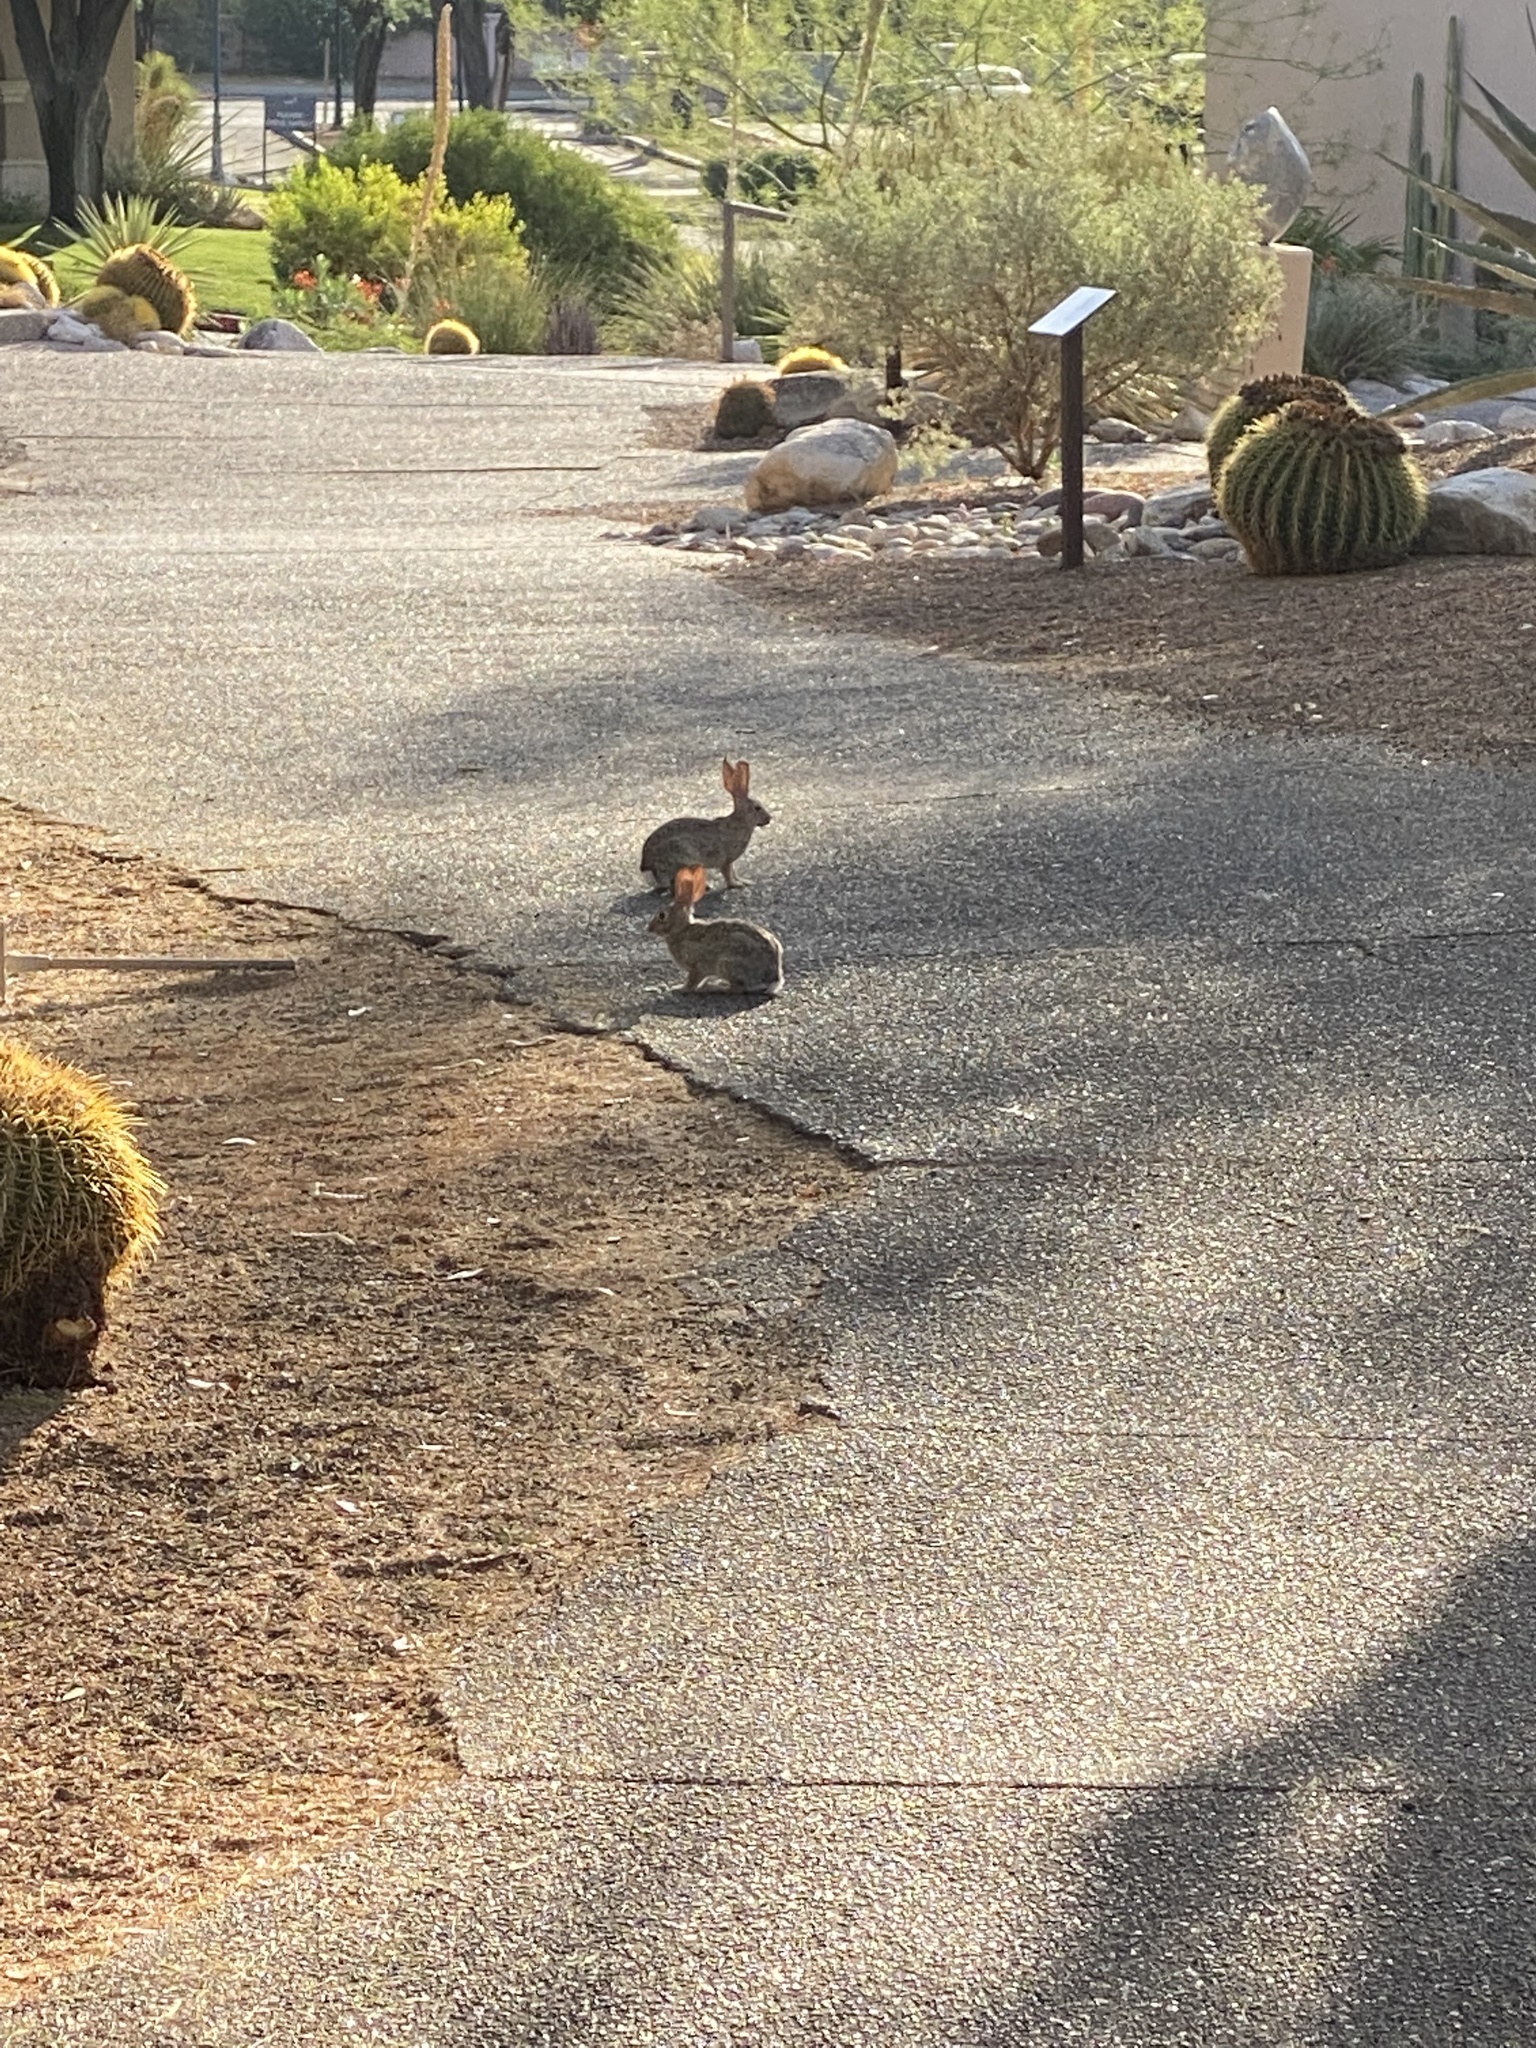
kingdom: Animalia
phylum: Chordata
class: Mammalia
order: Lagomorpha
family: Leporidae
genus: Sylvilagus
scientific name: Sylvilagus audubonii
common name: Desert cottontail
